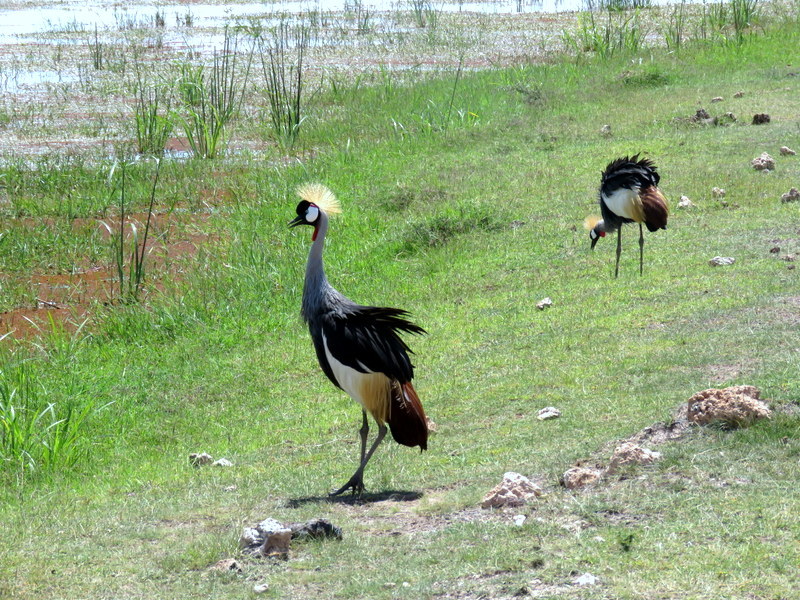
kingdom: Animalia
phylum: Chordata
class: Aves
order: Gruiformes
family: Gruidae
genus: Balearica
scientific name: Balearica regulorum
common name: Grey crowned crane
